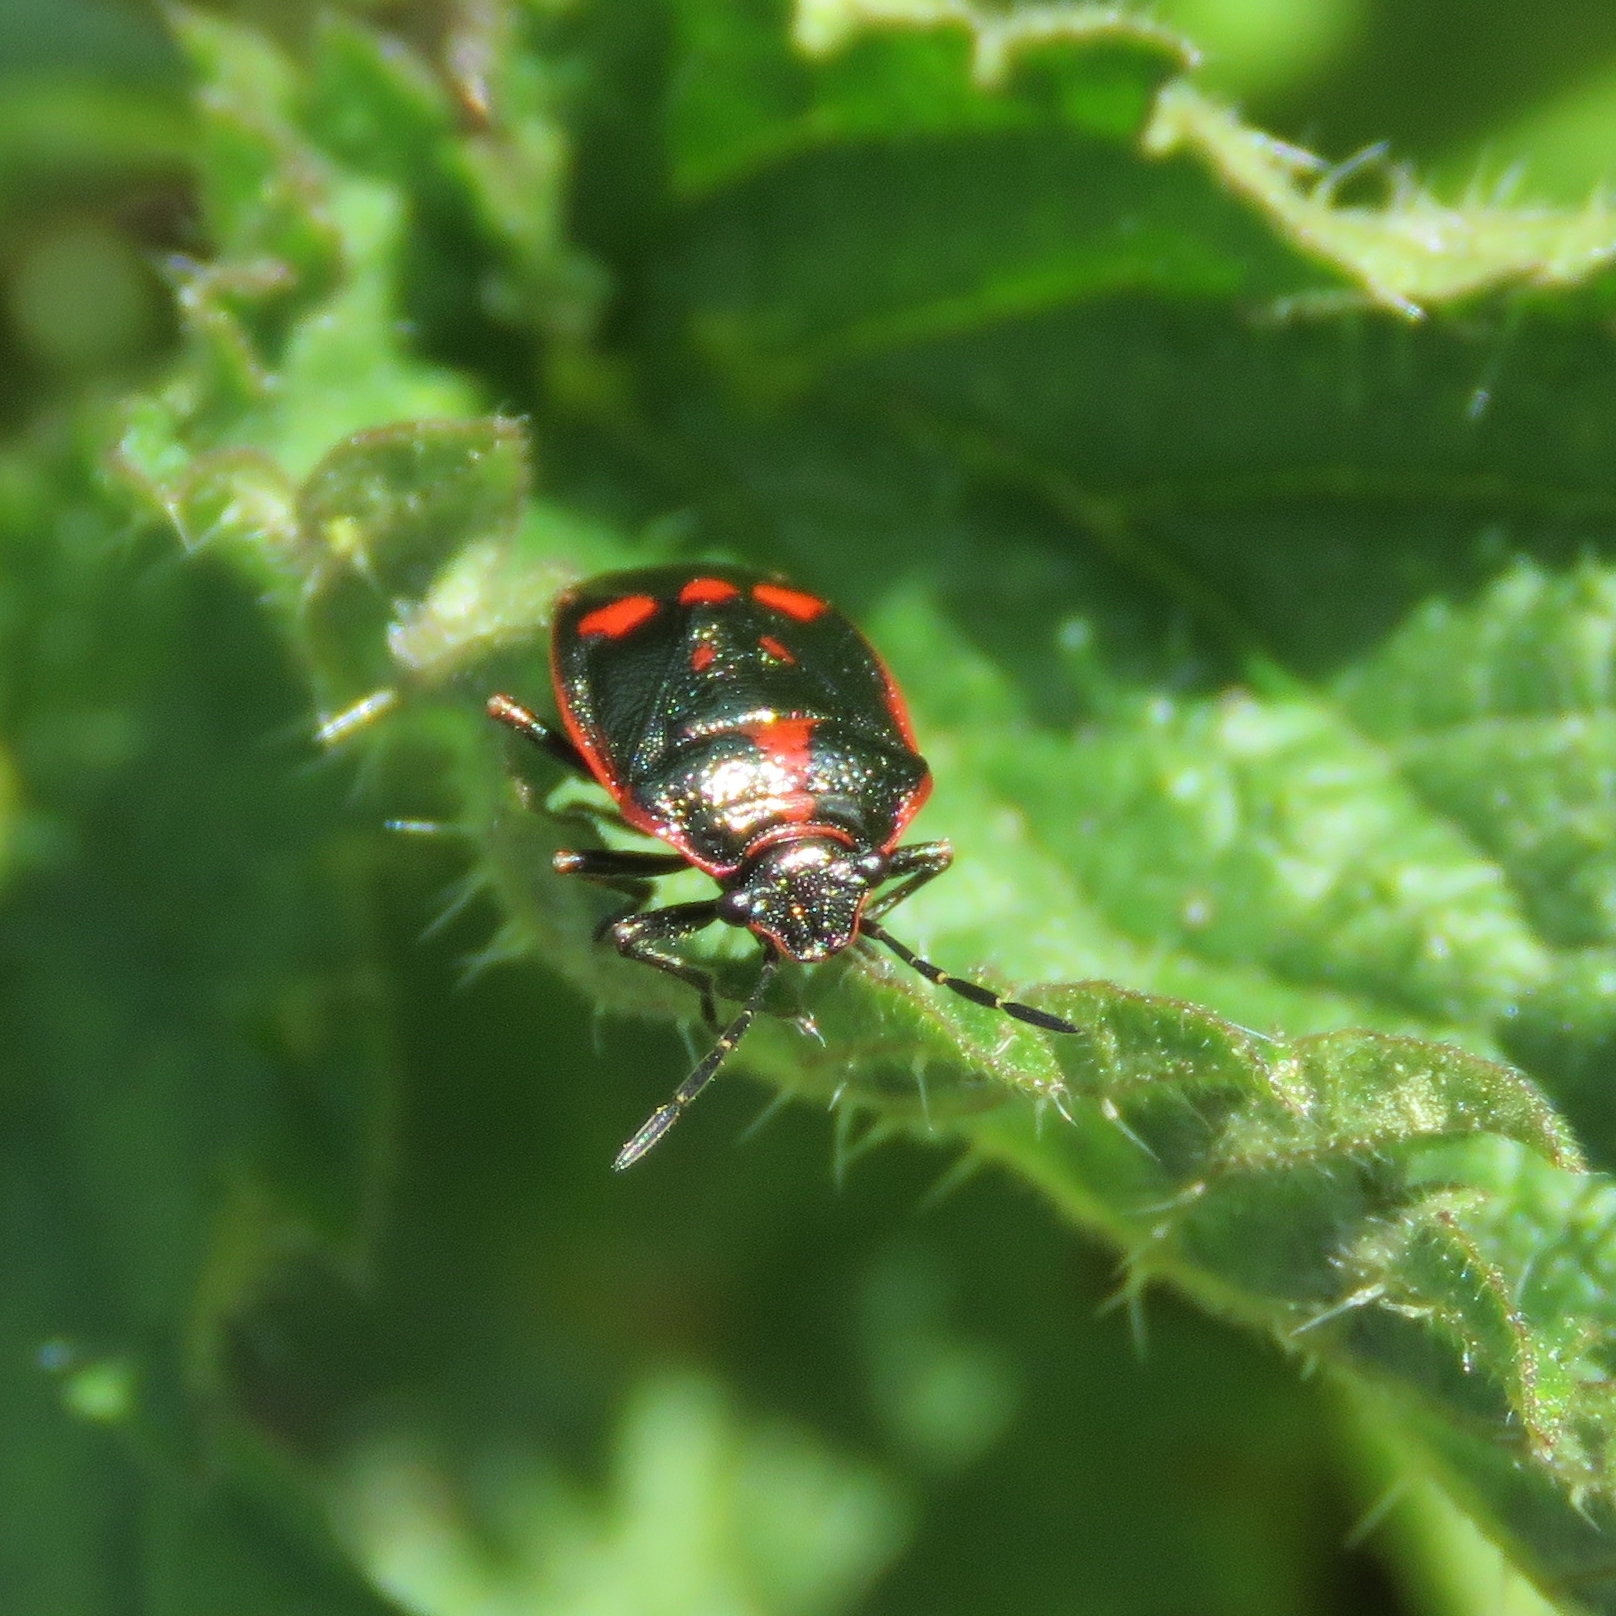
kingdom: Animalia
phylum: Arthropoda
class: Insecta
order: Hemiptera
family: Pentatomidae
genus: Eurydema
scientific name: Eurydema oleracea
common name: Cabbage bug
